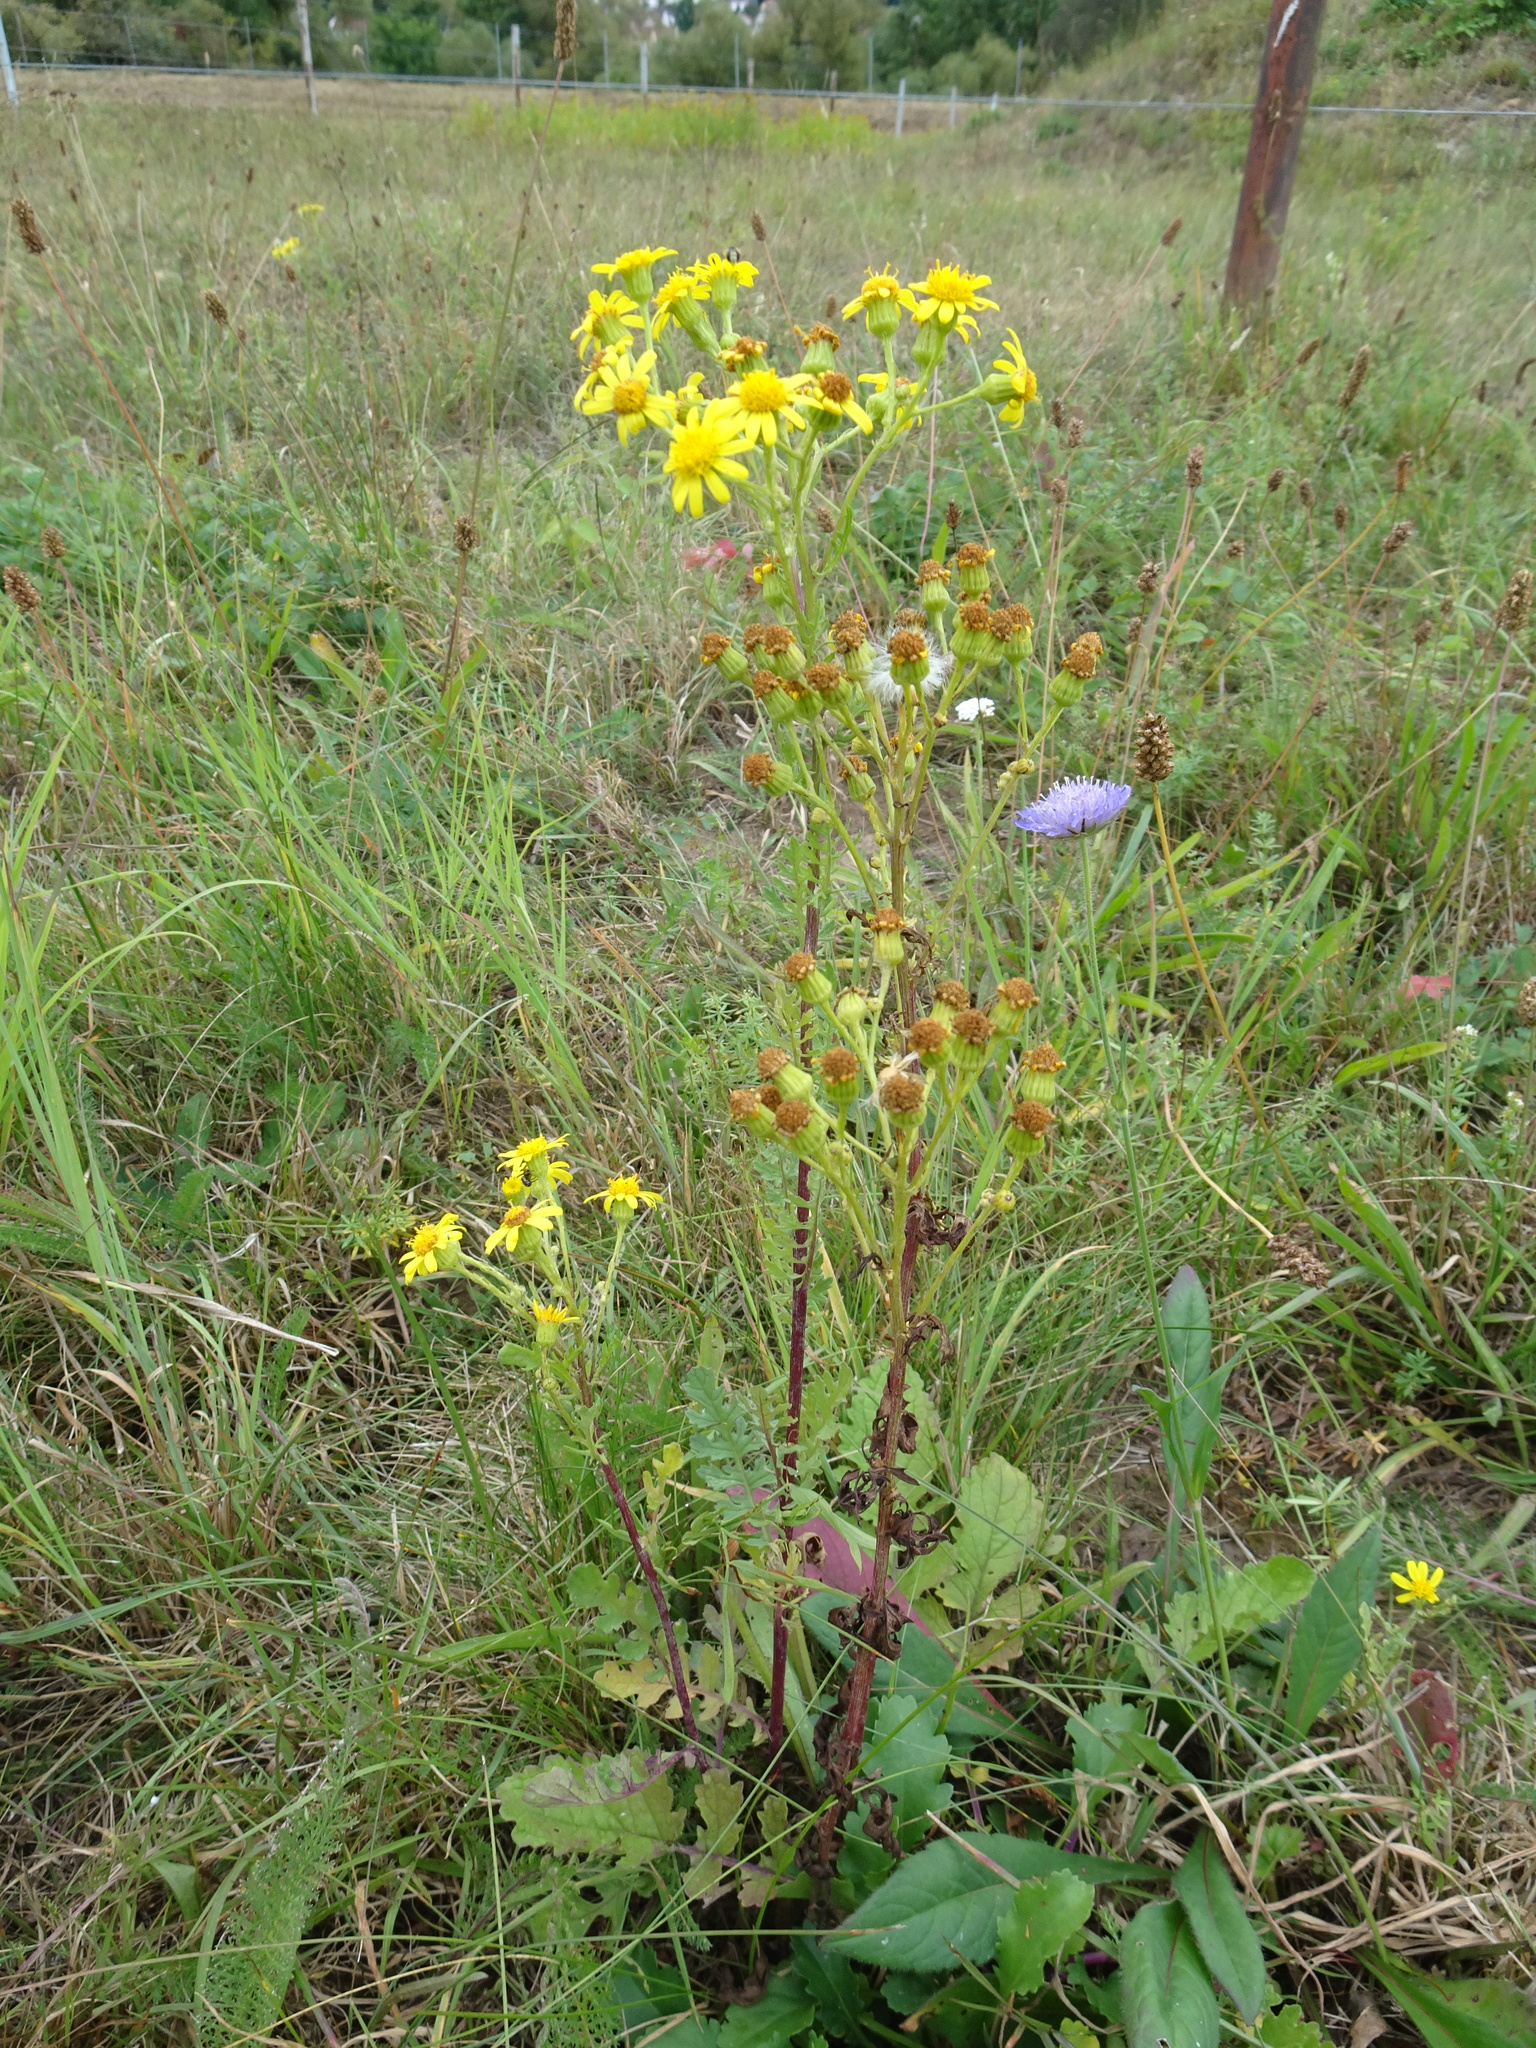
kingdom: Plantae
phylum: Tracheophyta
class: Magnoliopsida
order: Asterales
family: Asteraceae
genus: Jacobaea
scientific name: Jacobaea vulgaris
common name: Stinking willie
